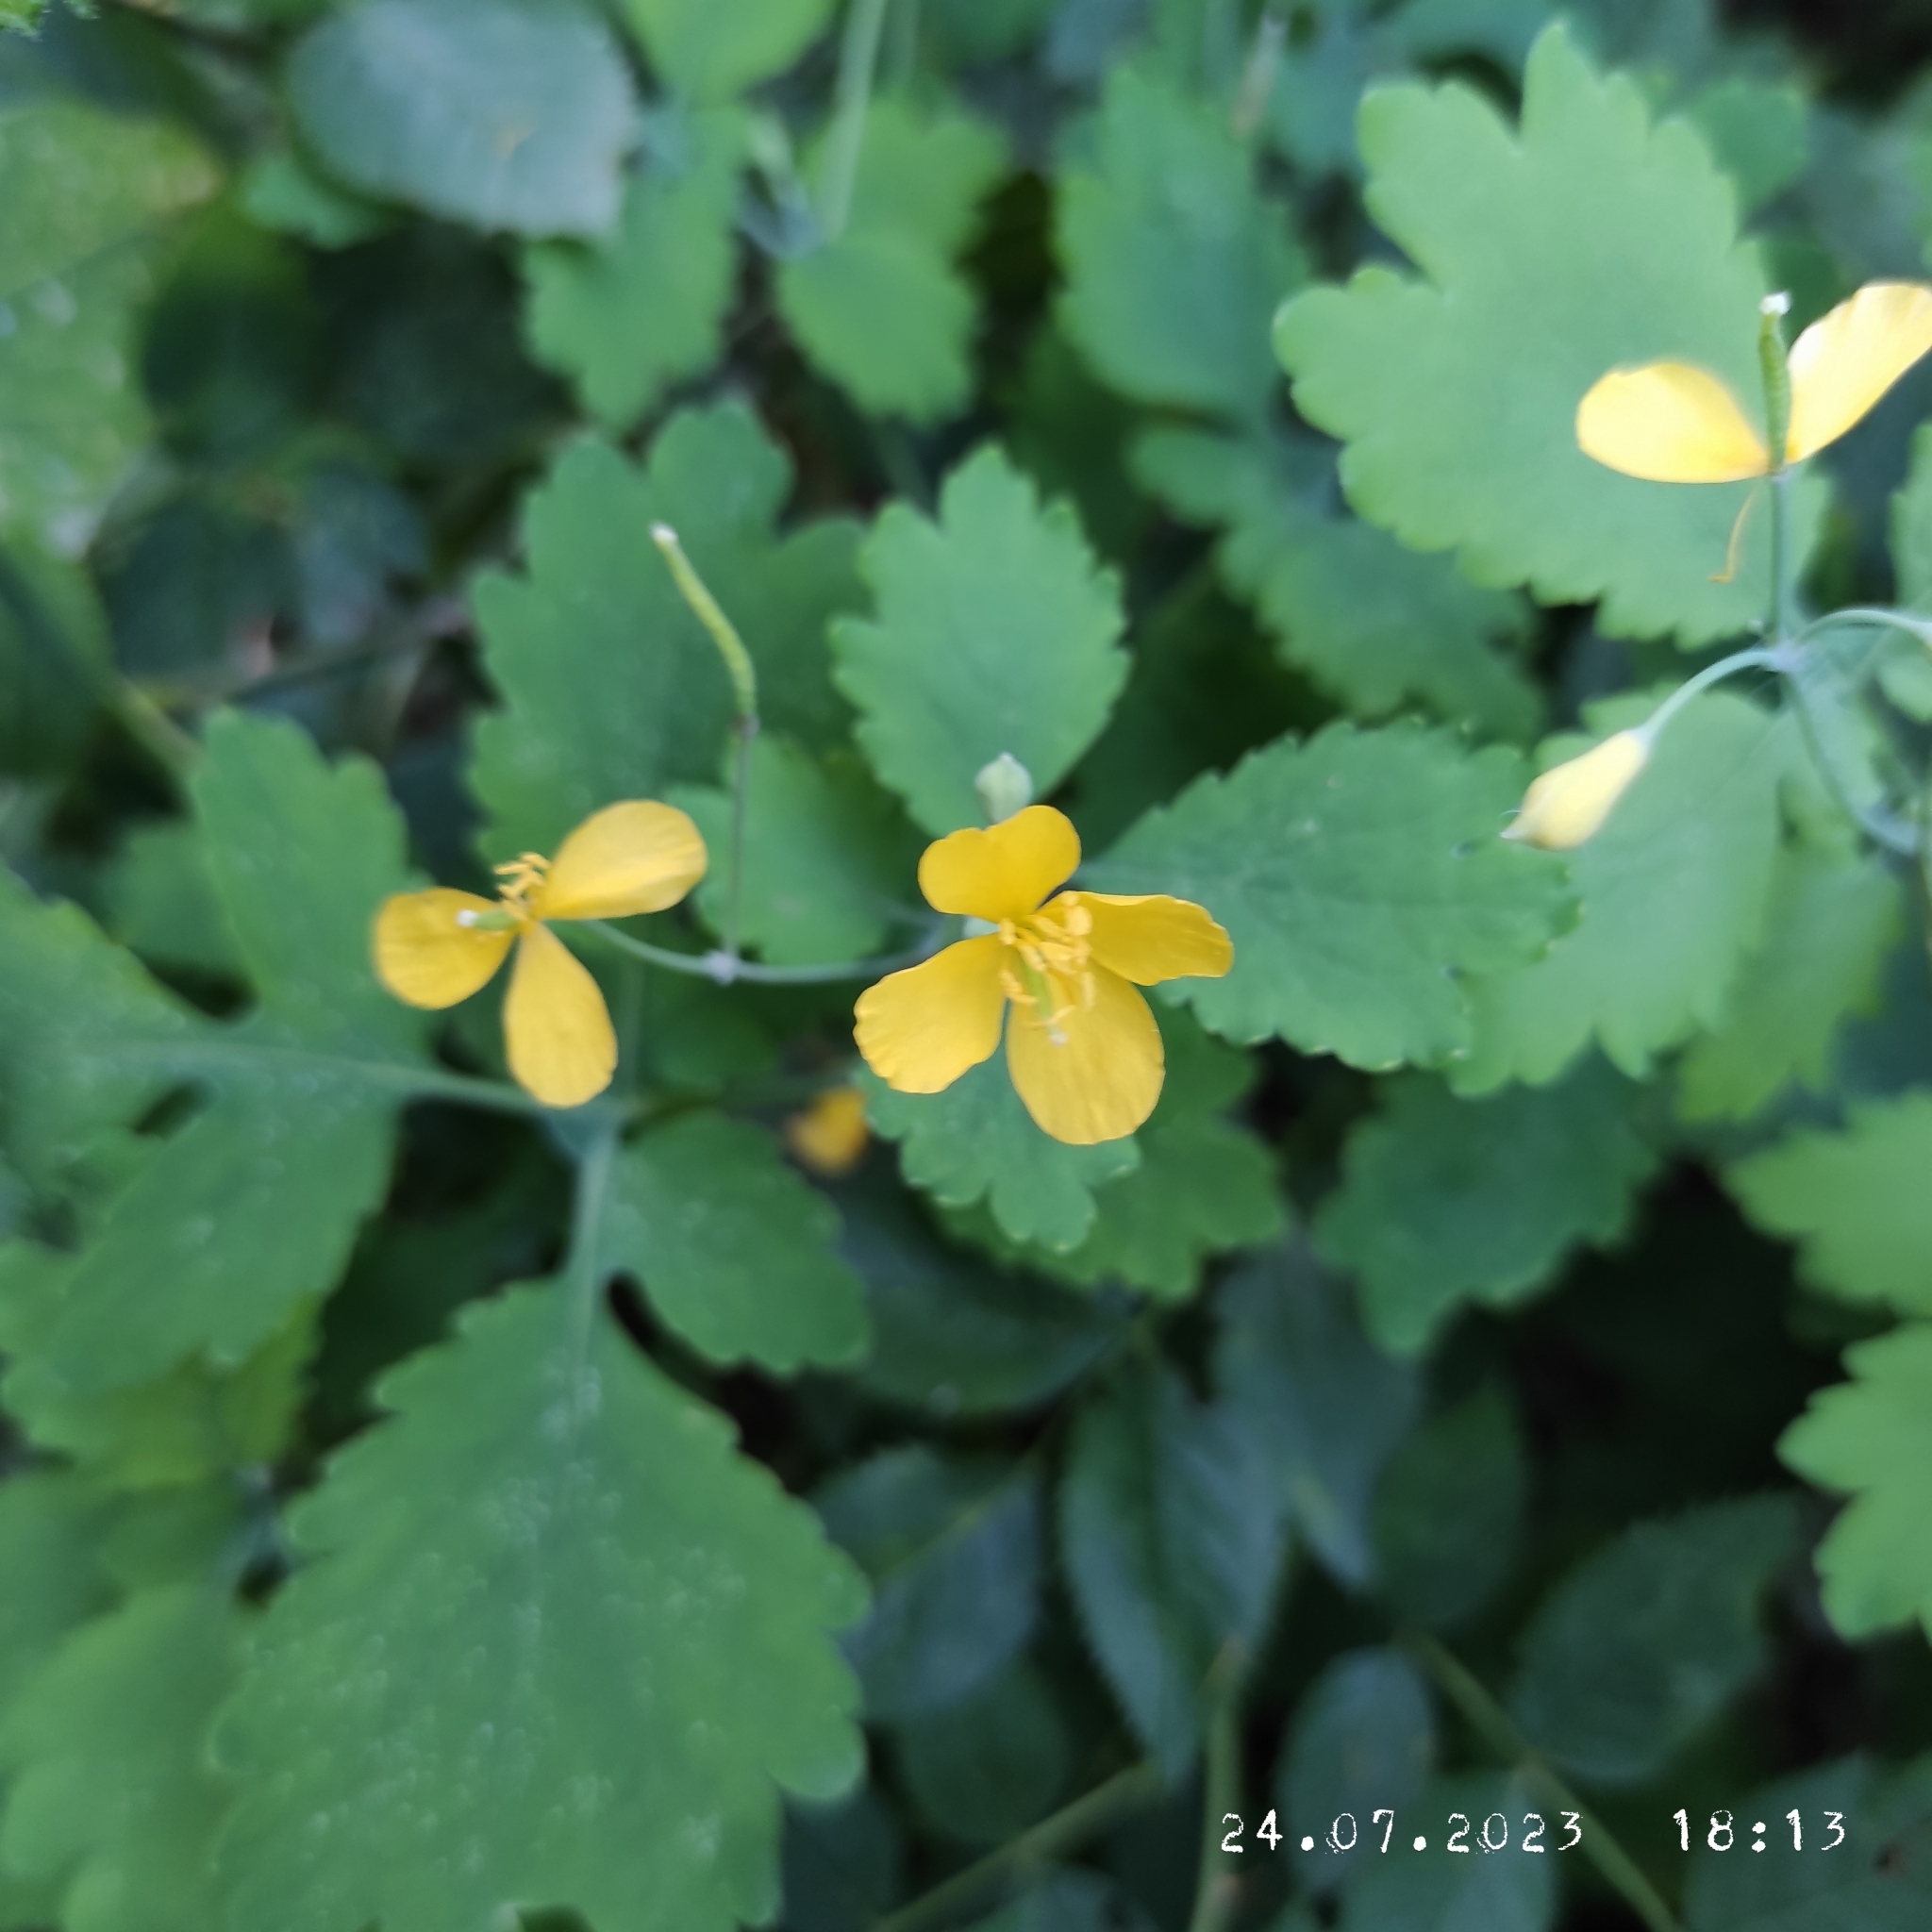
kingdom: Plantae
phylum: Tracheophyta
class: Magnoliopsida
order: Ranunculales
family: Papaveraceae
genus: Chelidonium
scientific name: Chelidonium majus
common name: Greater celandine
